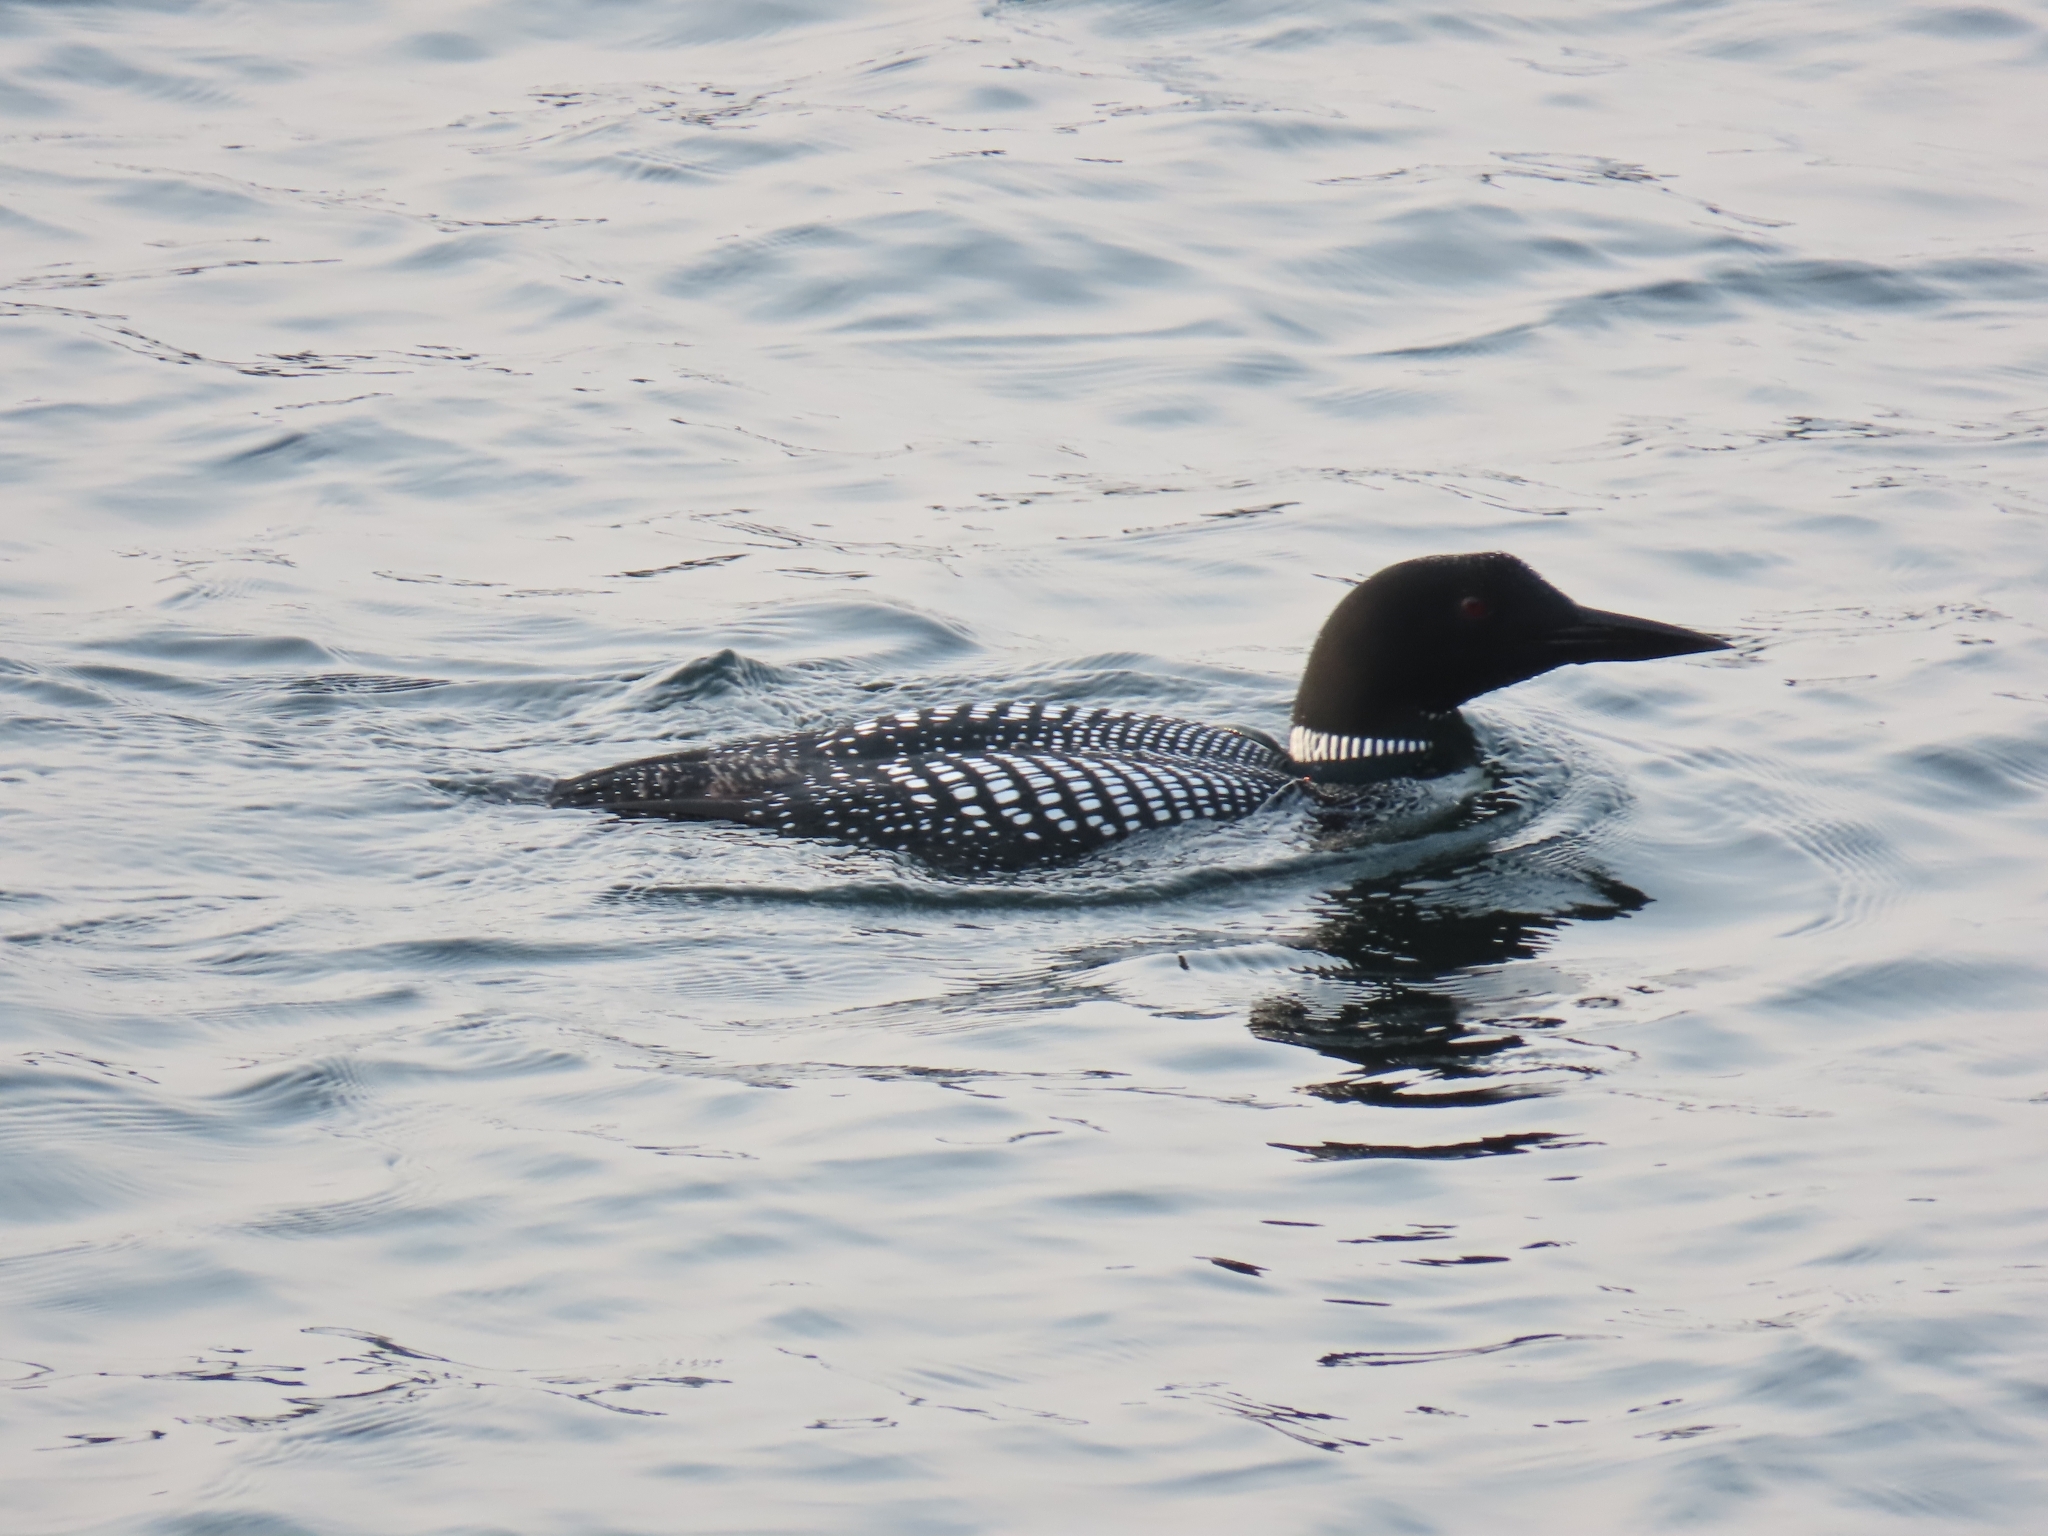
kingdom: Animalia
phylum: Chordata
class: Aves
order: Gaviiformes
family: Gaviidae
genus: Gavia
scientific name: Gavia immer
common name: Common loon
